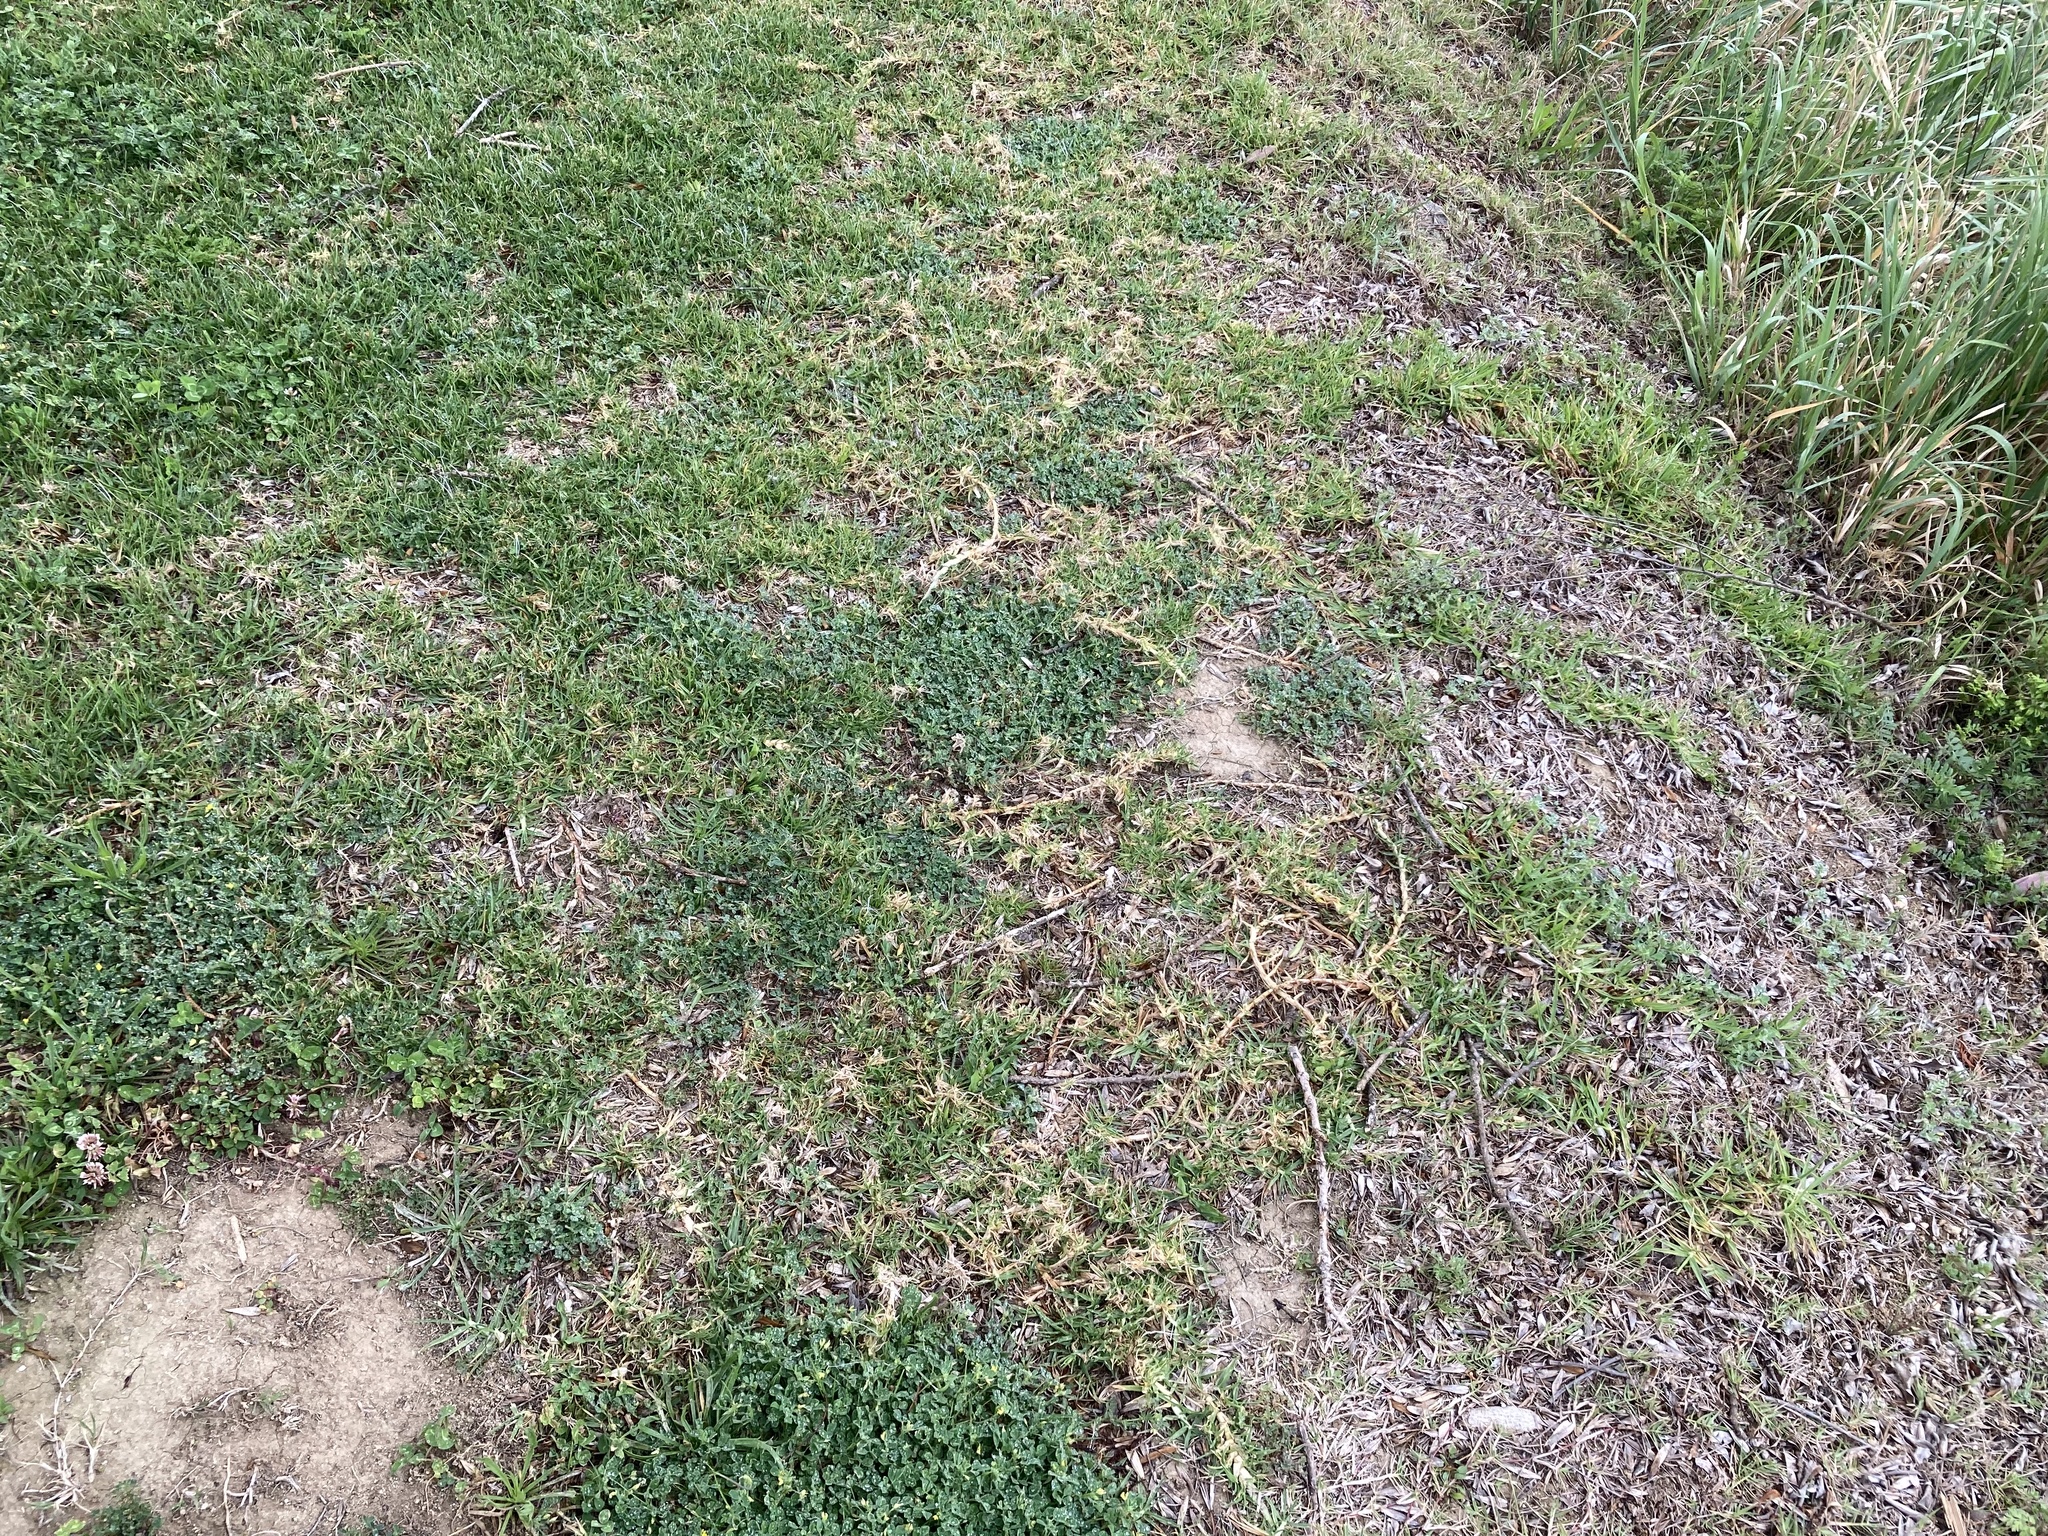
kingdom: Plantae
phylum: Tracheophyta
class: Liliopsida
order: Poales
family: Poaceae
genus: Cenchrus
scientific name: Cenchrus clandestinus
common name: Kikuyugrass
